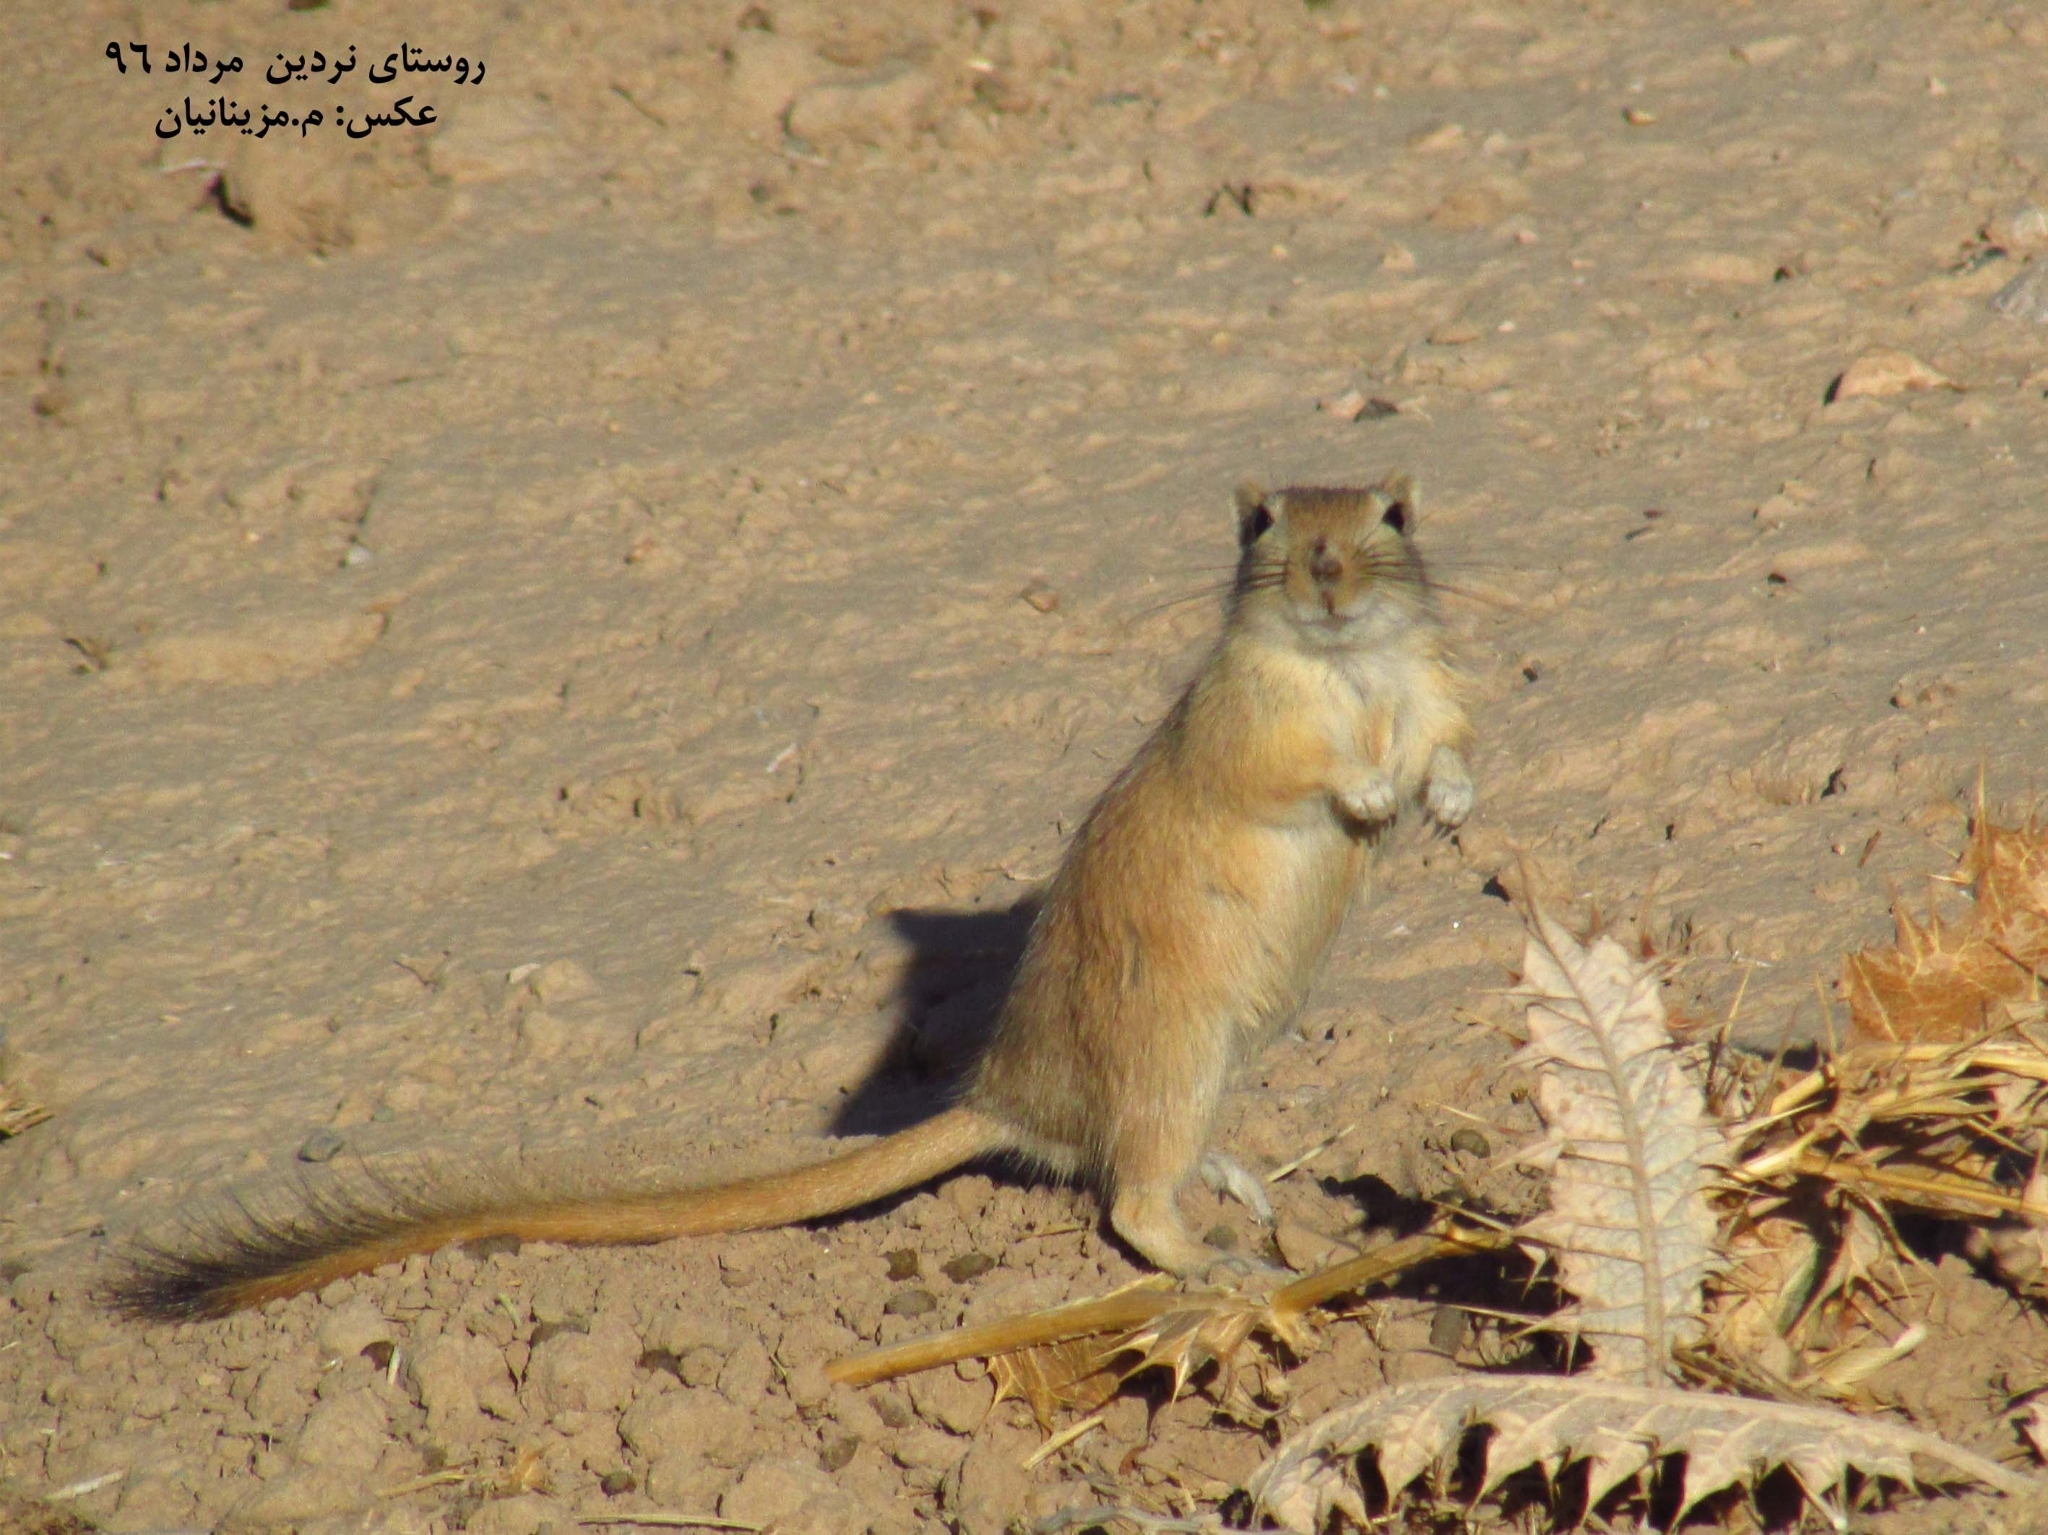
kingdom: Animalia
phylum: Chordata
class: Mammalia
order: Rodentia
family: Muridae
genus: Rhombomys
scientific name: Rhombomys opimus
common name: Great gerbil
